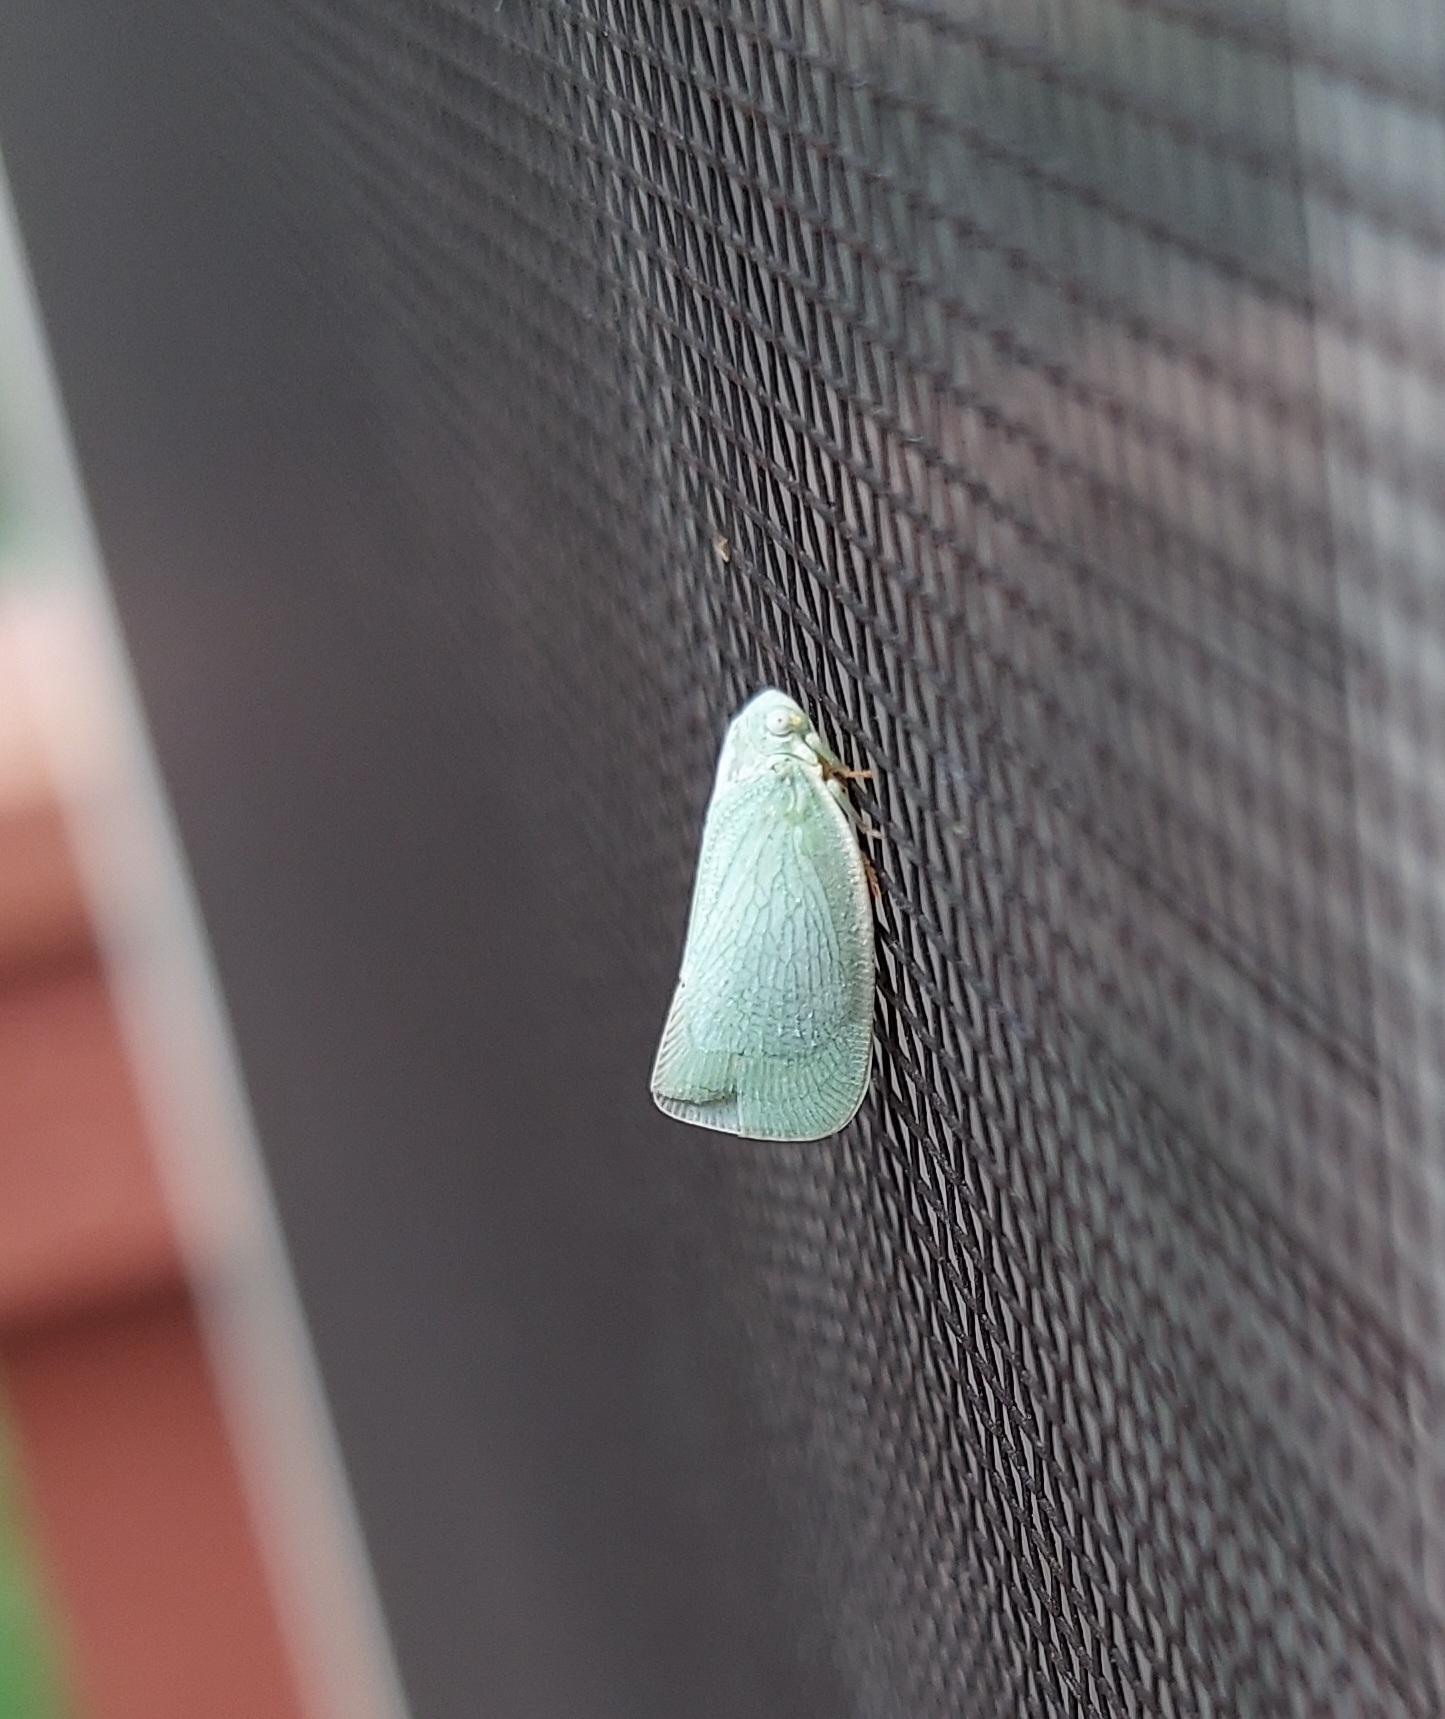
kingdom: Animalia
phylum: Arthropoda
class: Insecta
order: Hemiptera
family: Flatidae
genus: Flatormenis
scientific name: Flatormenis proxima
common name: Northern flatid planthopper
